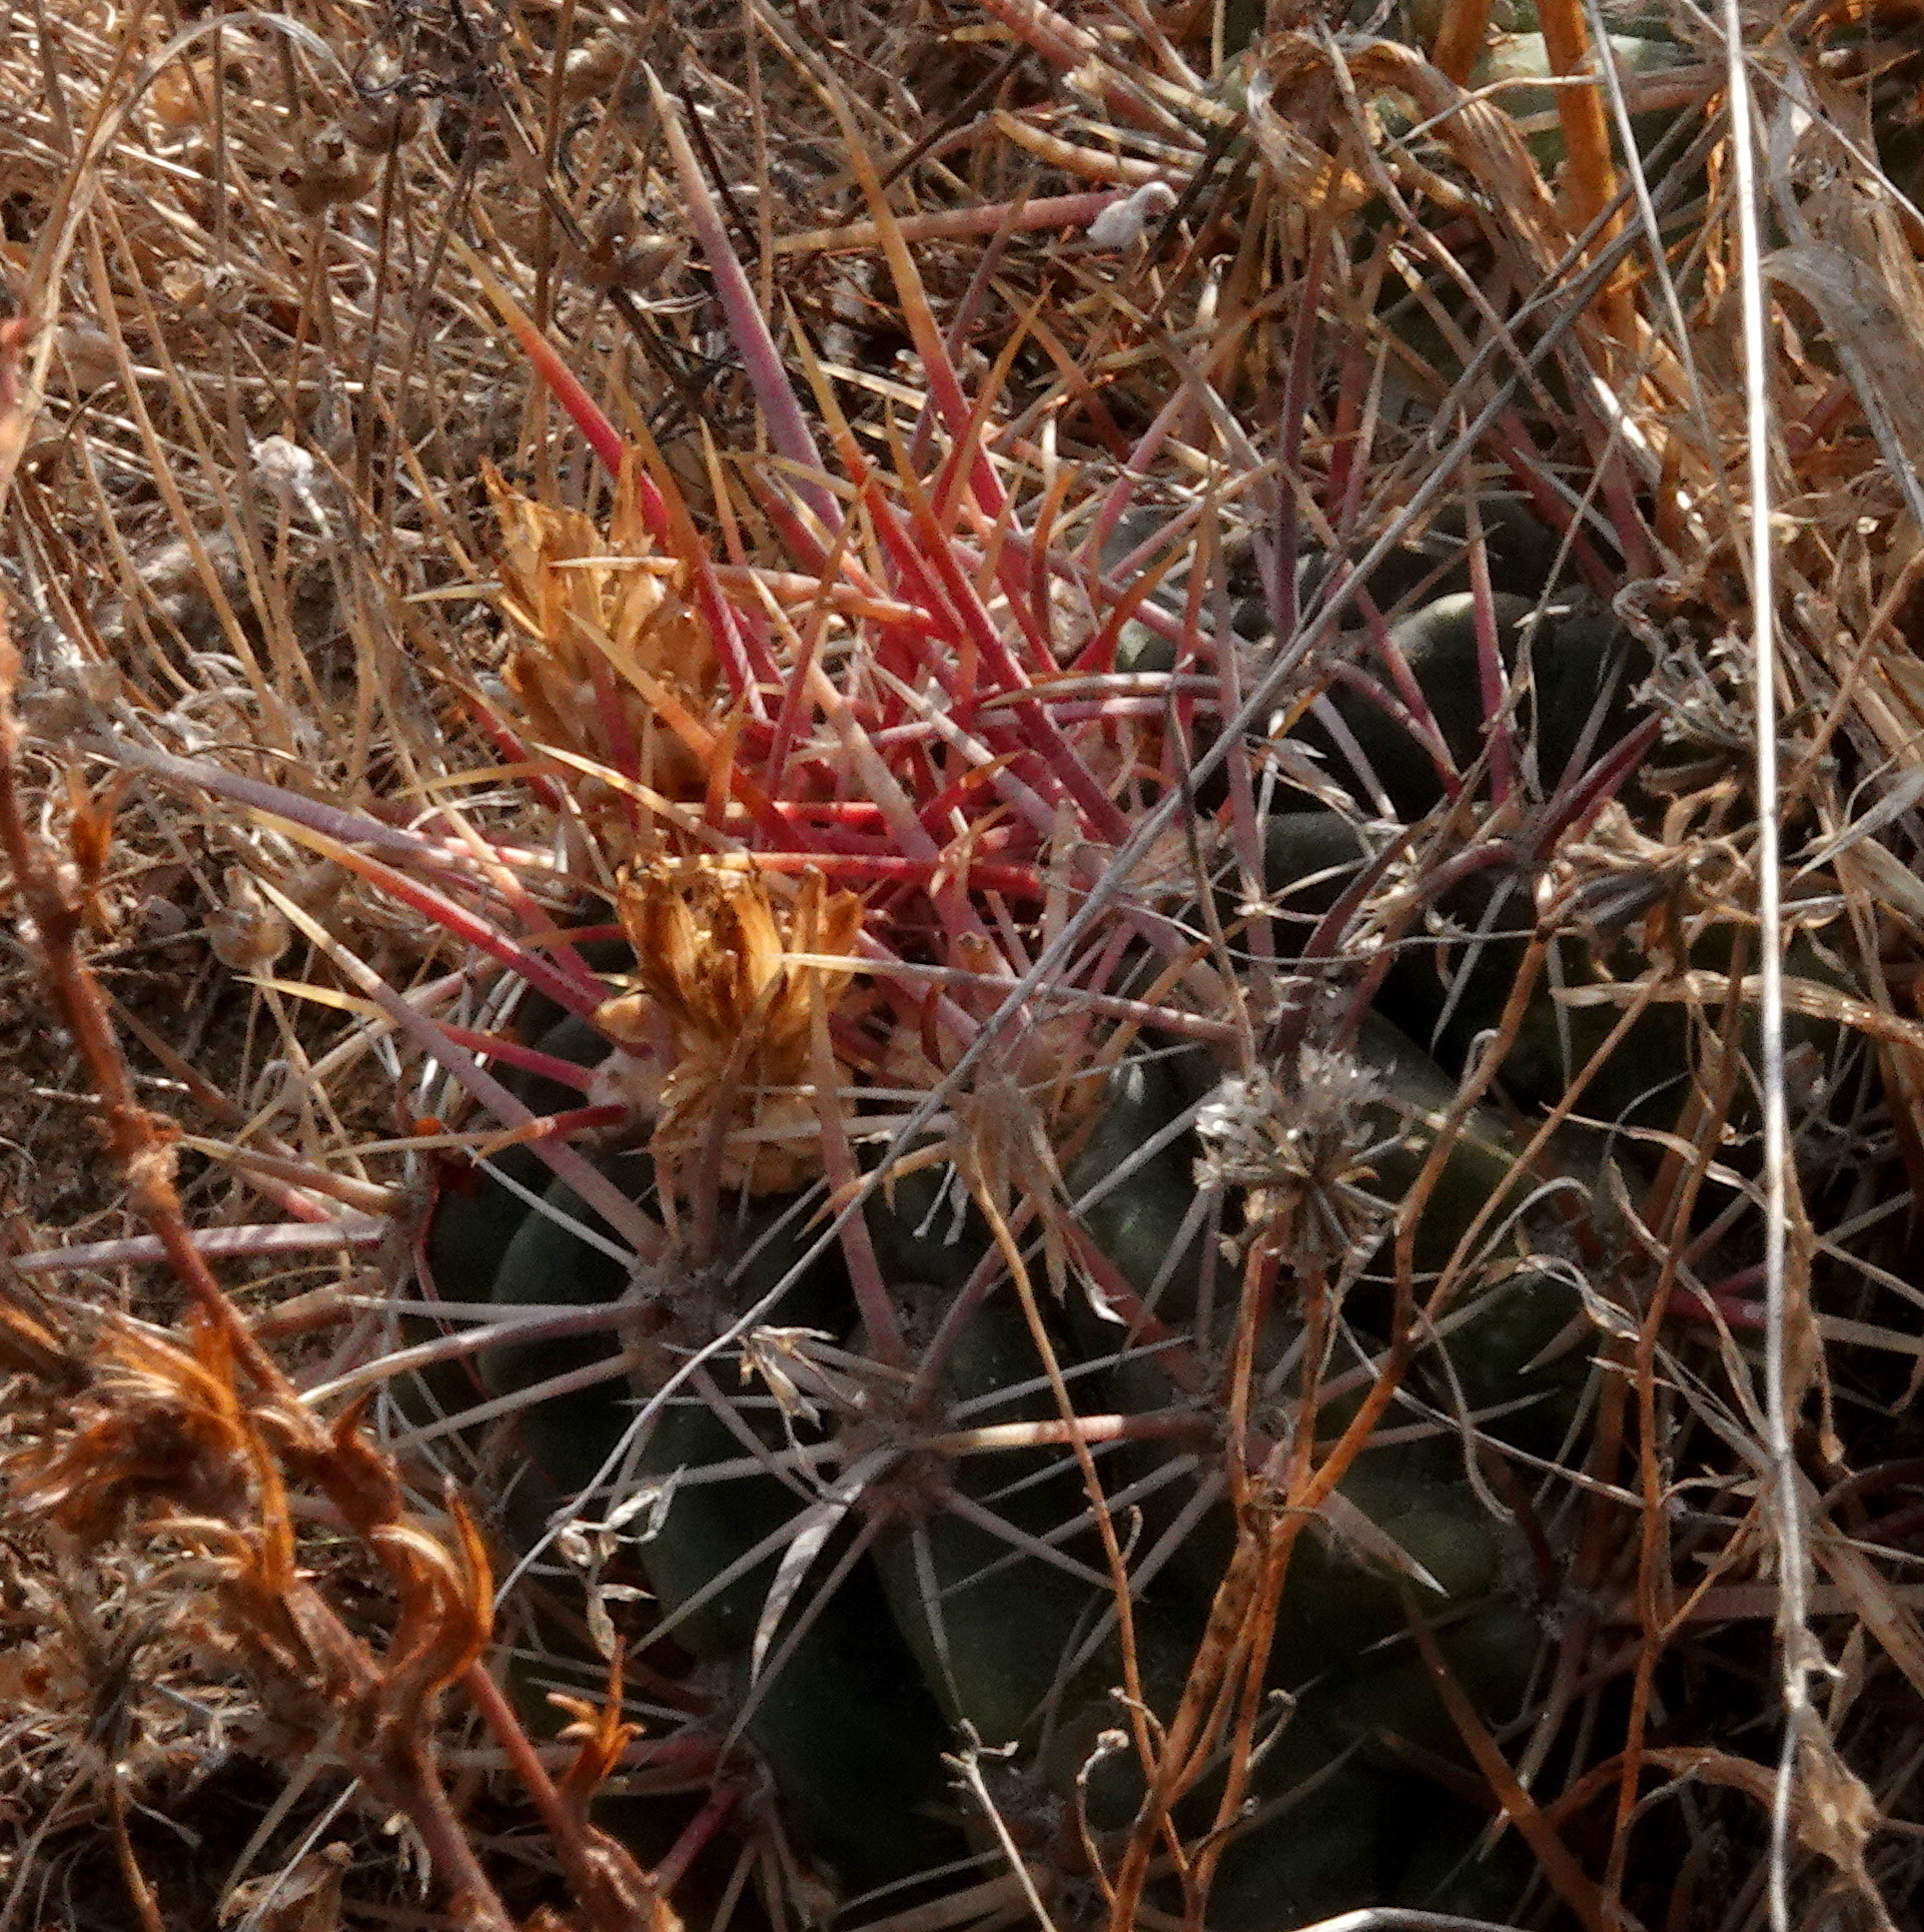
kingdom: Plantae
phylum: Tracheophyta
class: Magnoliopsida
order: Caryophyllales
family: Cactaceae
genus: Ferocactus
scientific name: Ferocactus viridescens
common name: San diego barrel cactus
